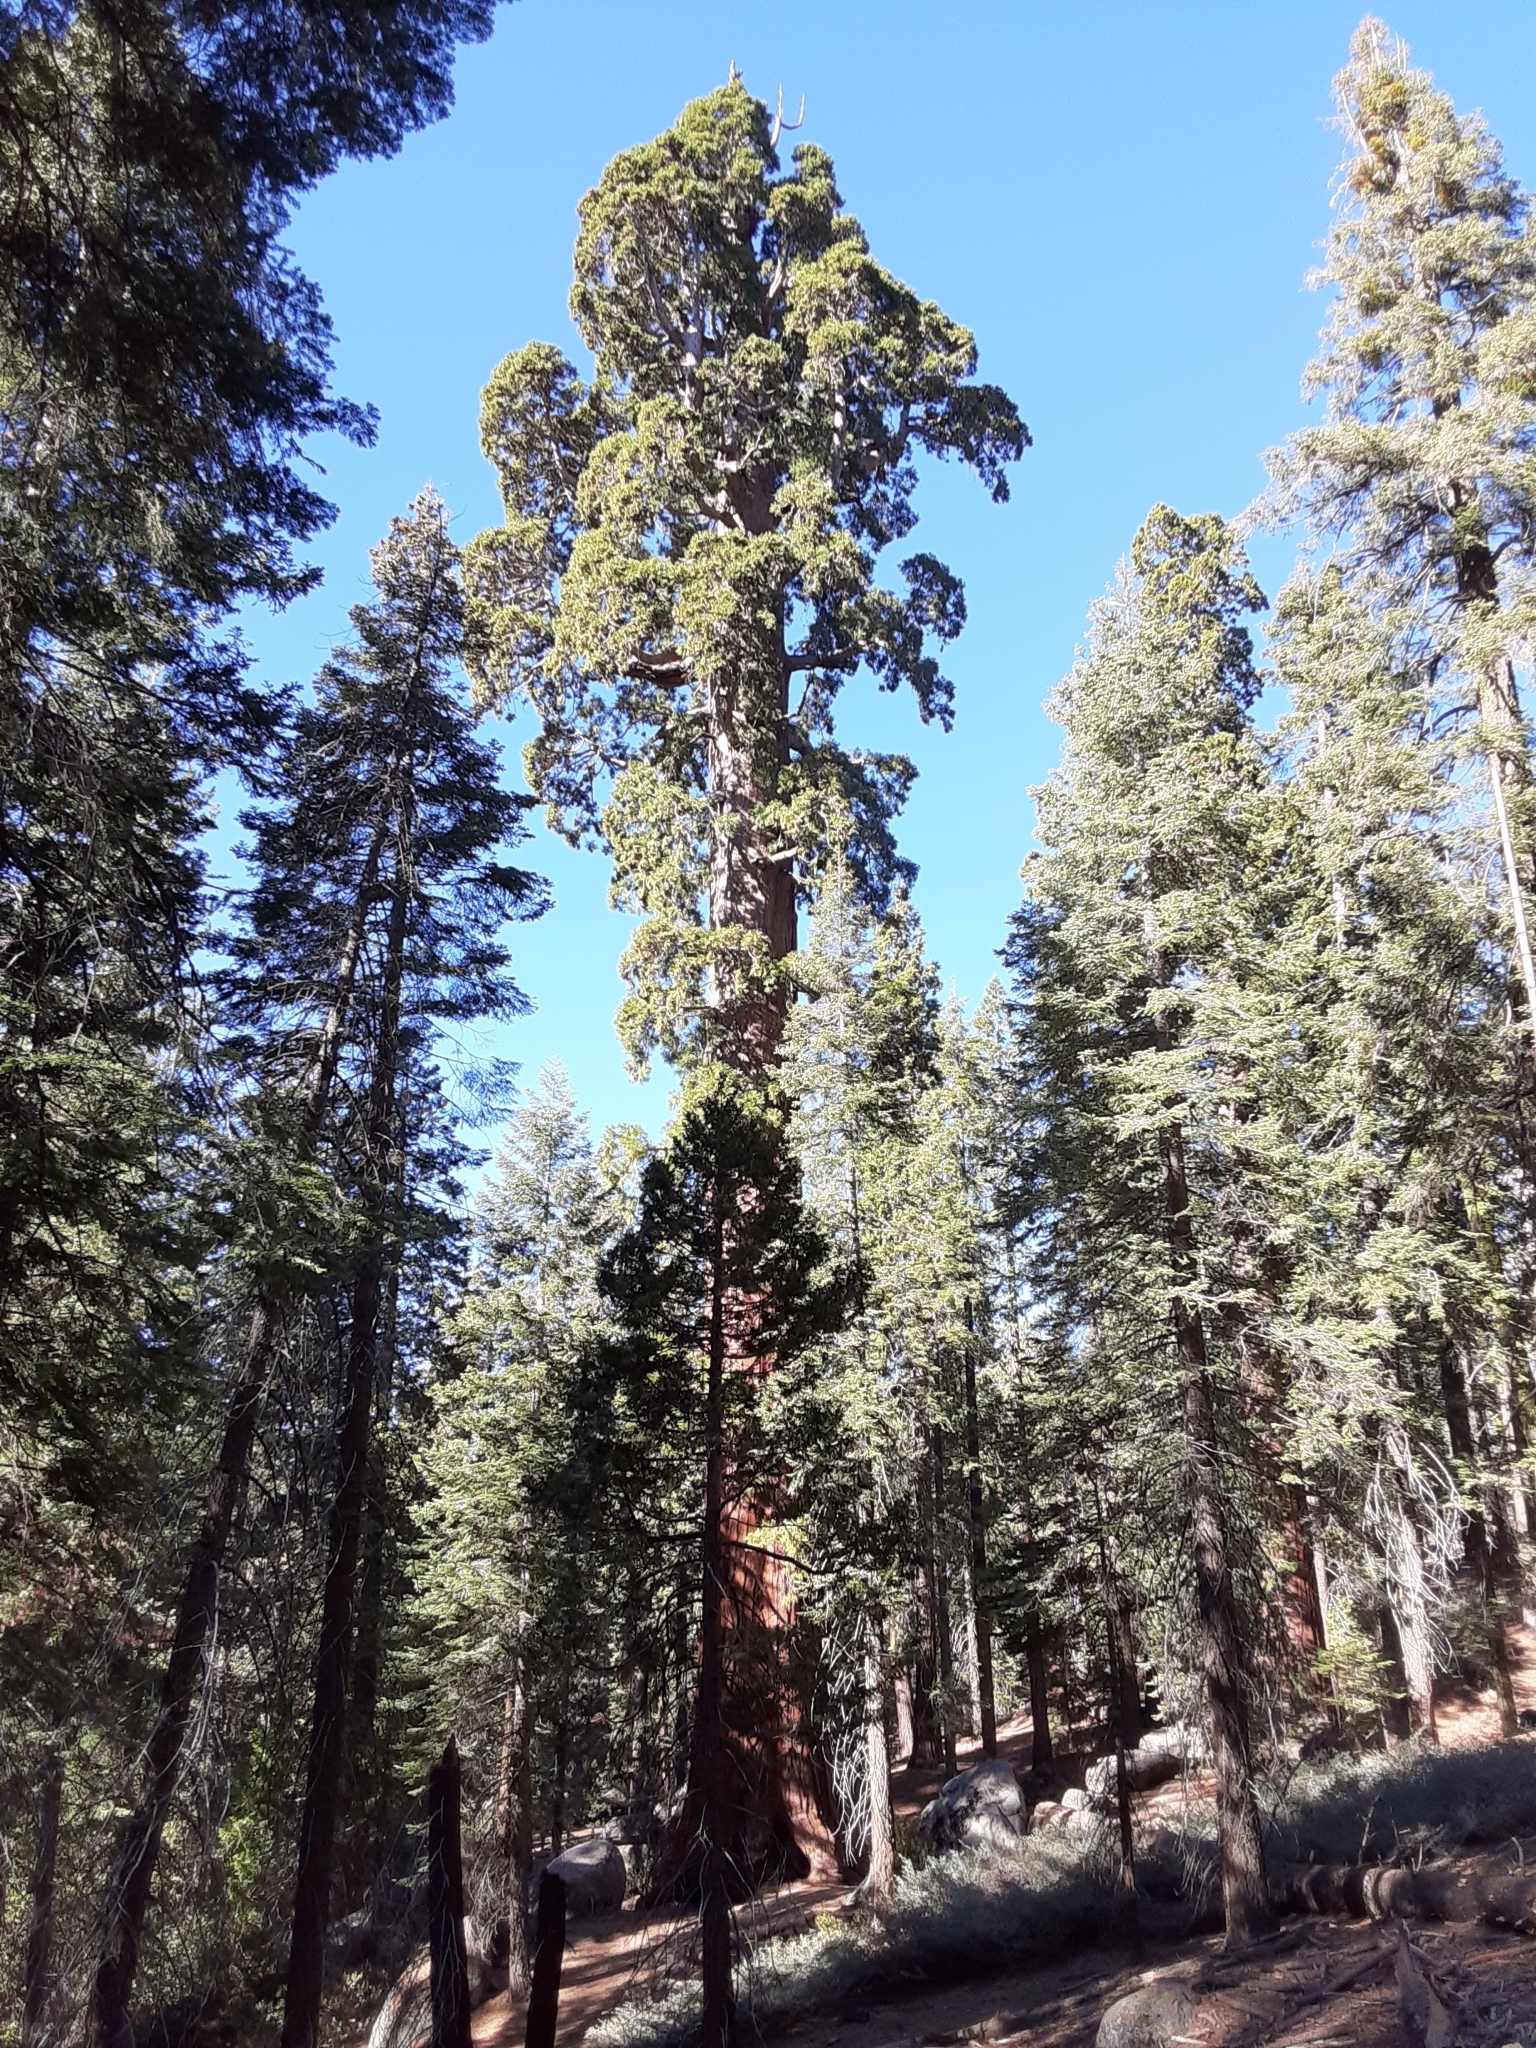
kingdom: Plantae
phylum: Tracheophyta
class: Pinopsida
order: Pinales
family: Cupressaceae
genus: Sequoiadendron
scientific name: Sequoiadendron giganteum
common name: Wellingtonia
